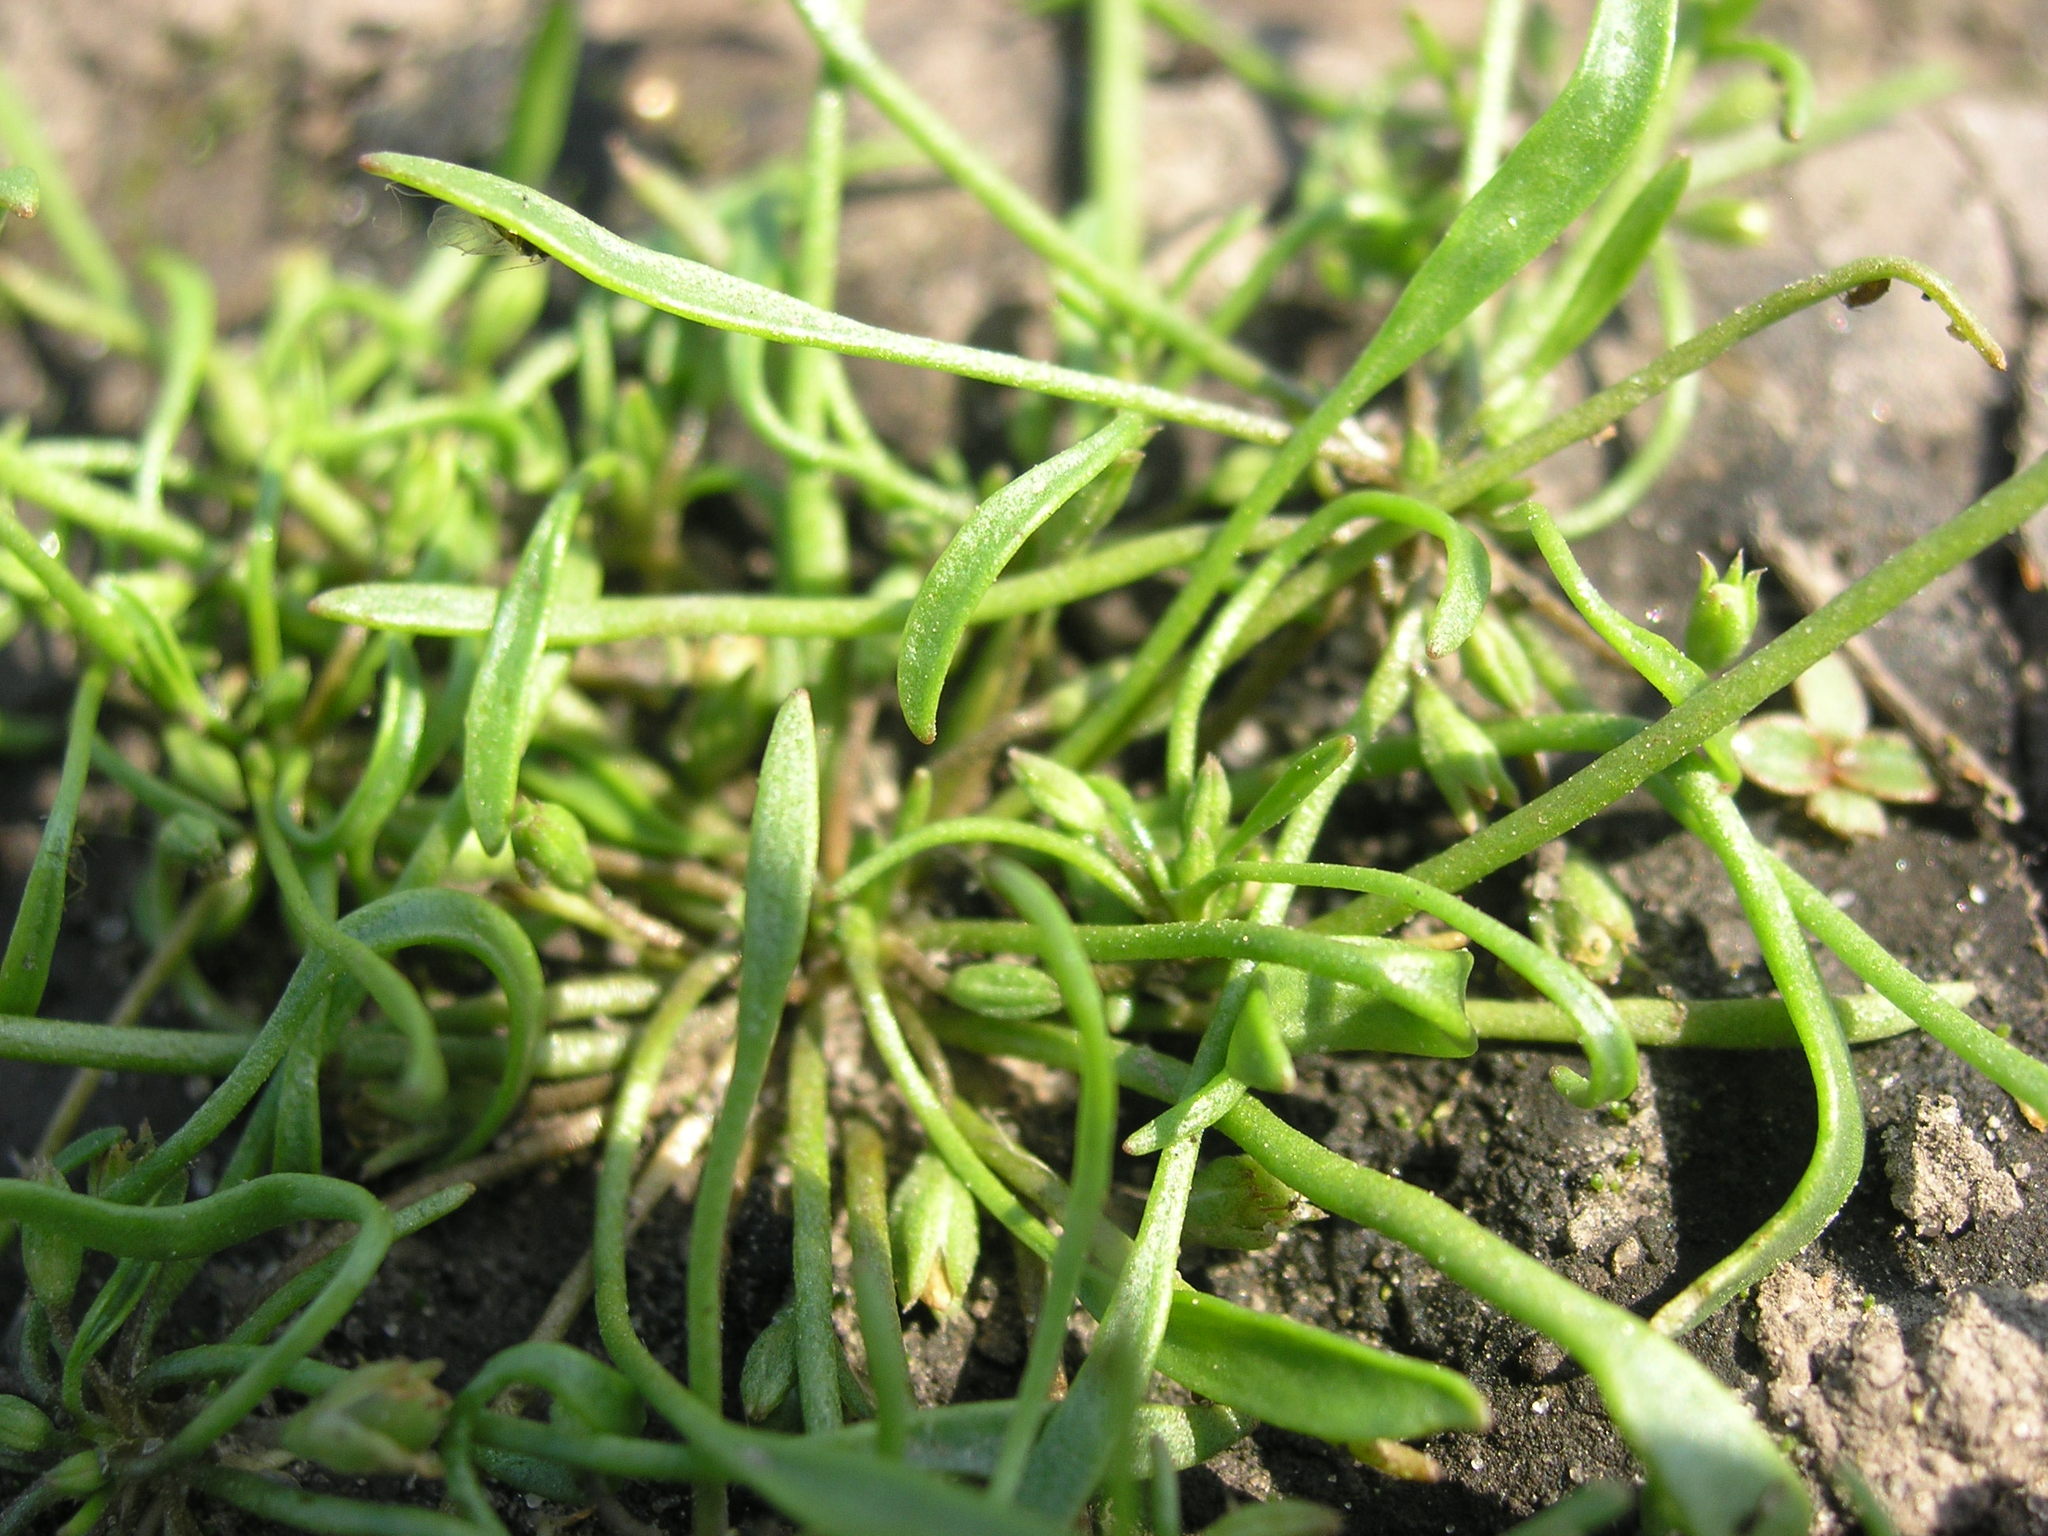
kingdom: Plantae
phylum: Tracheophyta
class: Magnoliopsida
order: Lamiales
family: Scrophulariaceae
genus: Limosella
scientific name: Limosella aquatica
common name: Mudwort
